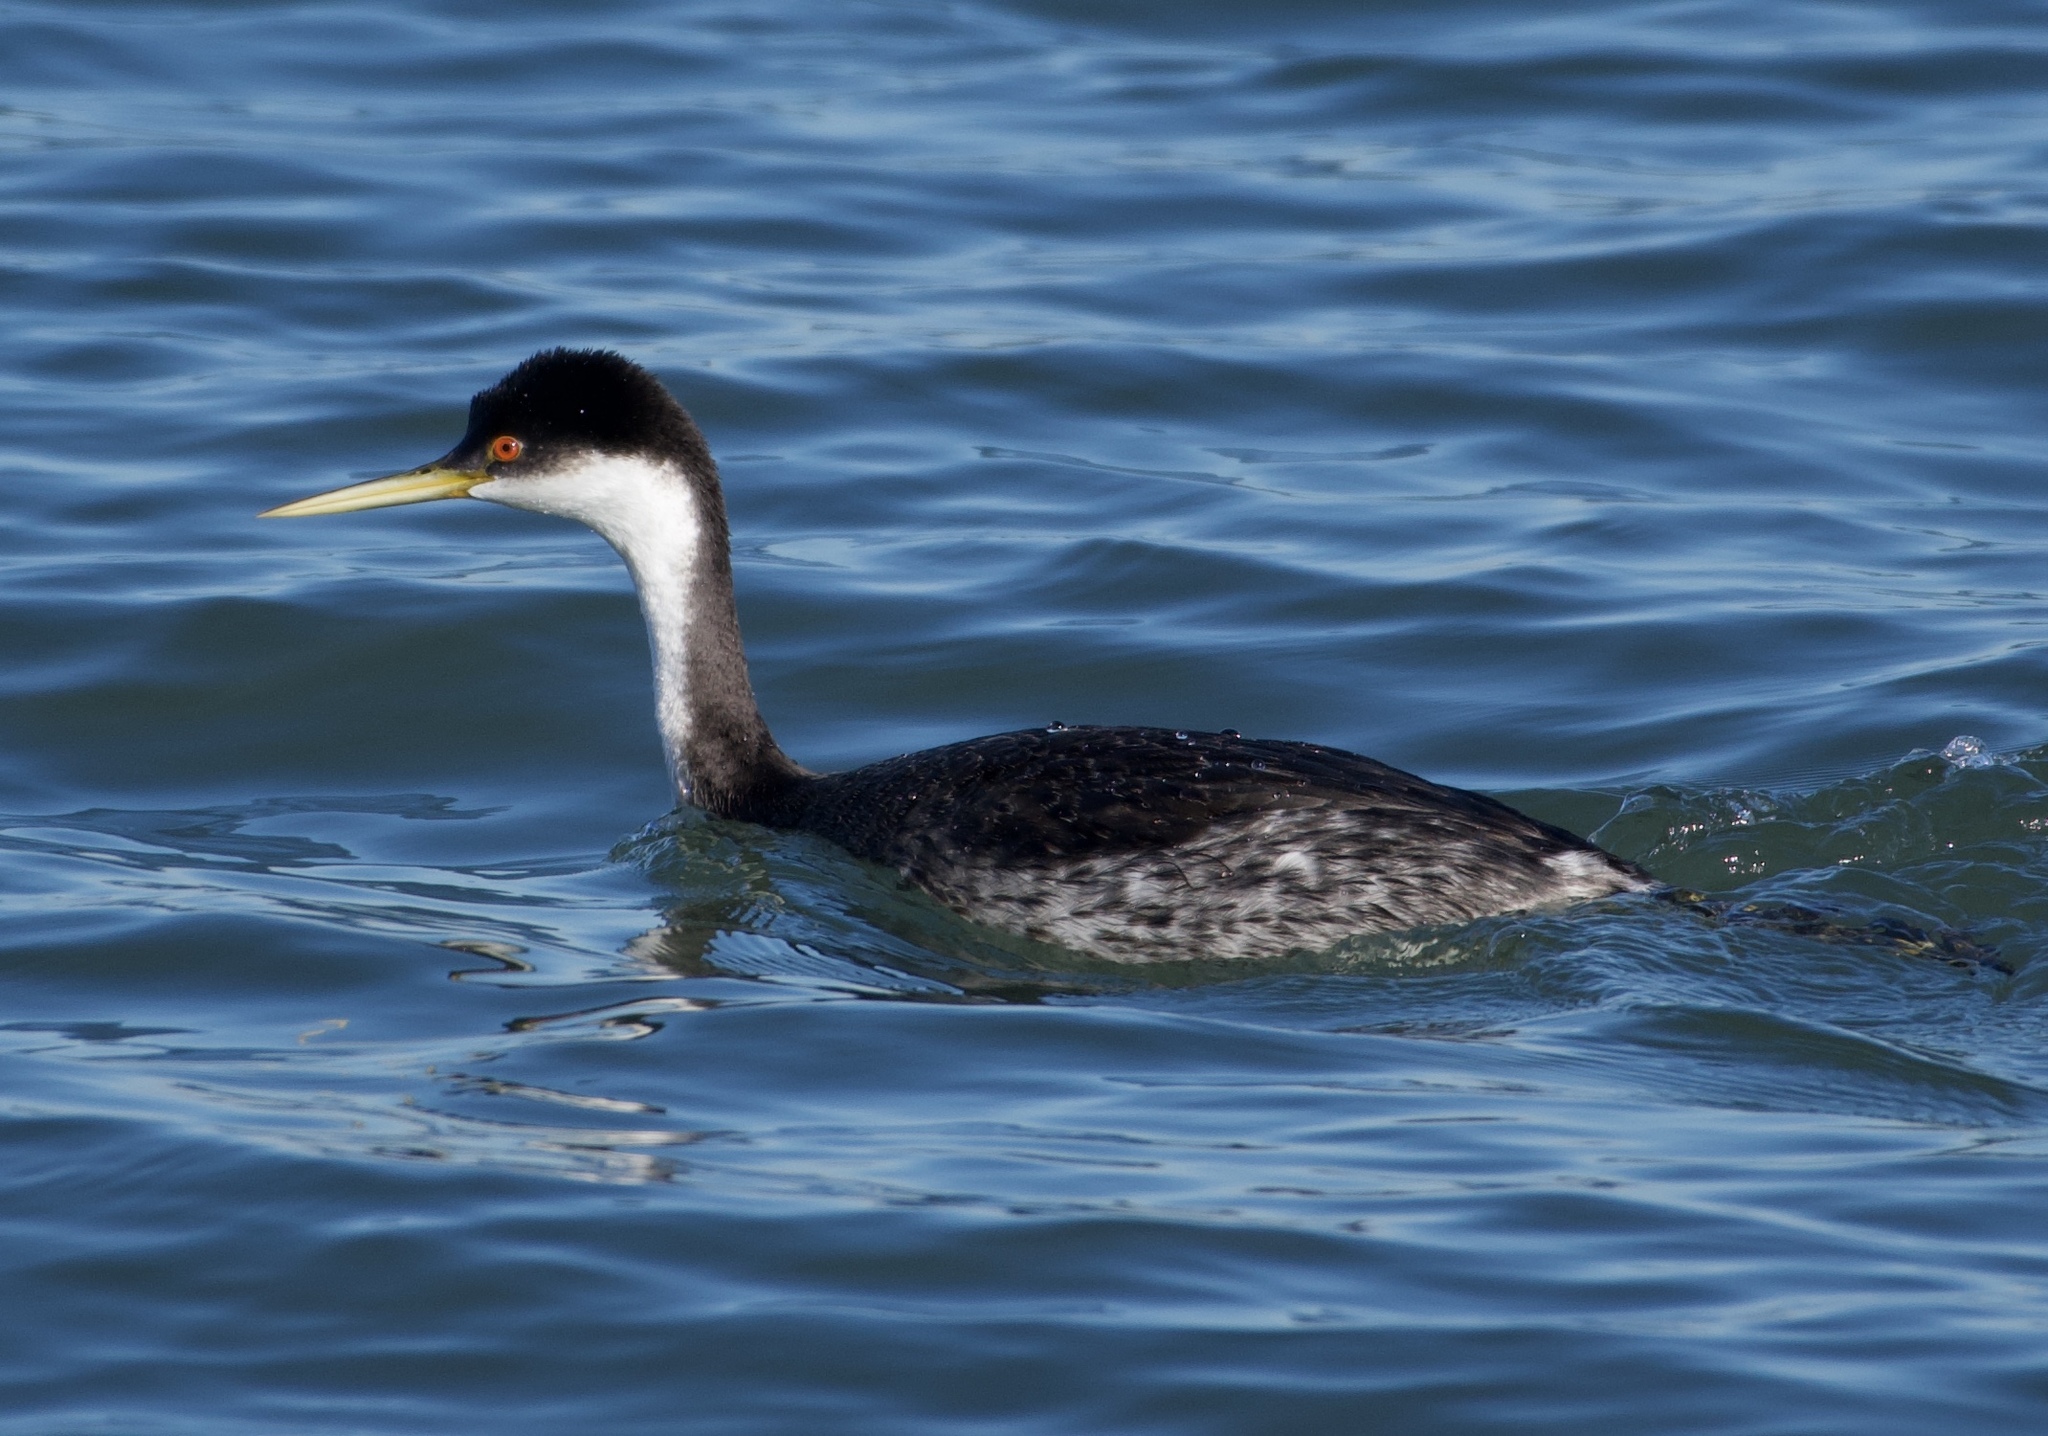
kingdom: Animalia
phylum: Chordata
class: Aves
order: Podicipediformes
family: Podicipedidae
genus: Aechmophorus
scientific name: Aechmophorus occidentalis
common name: Western grebe
